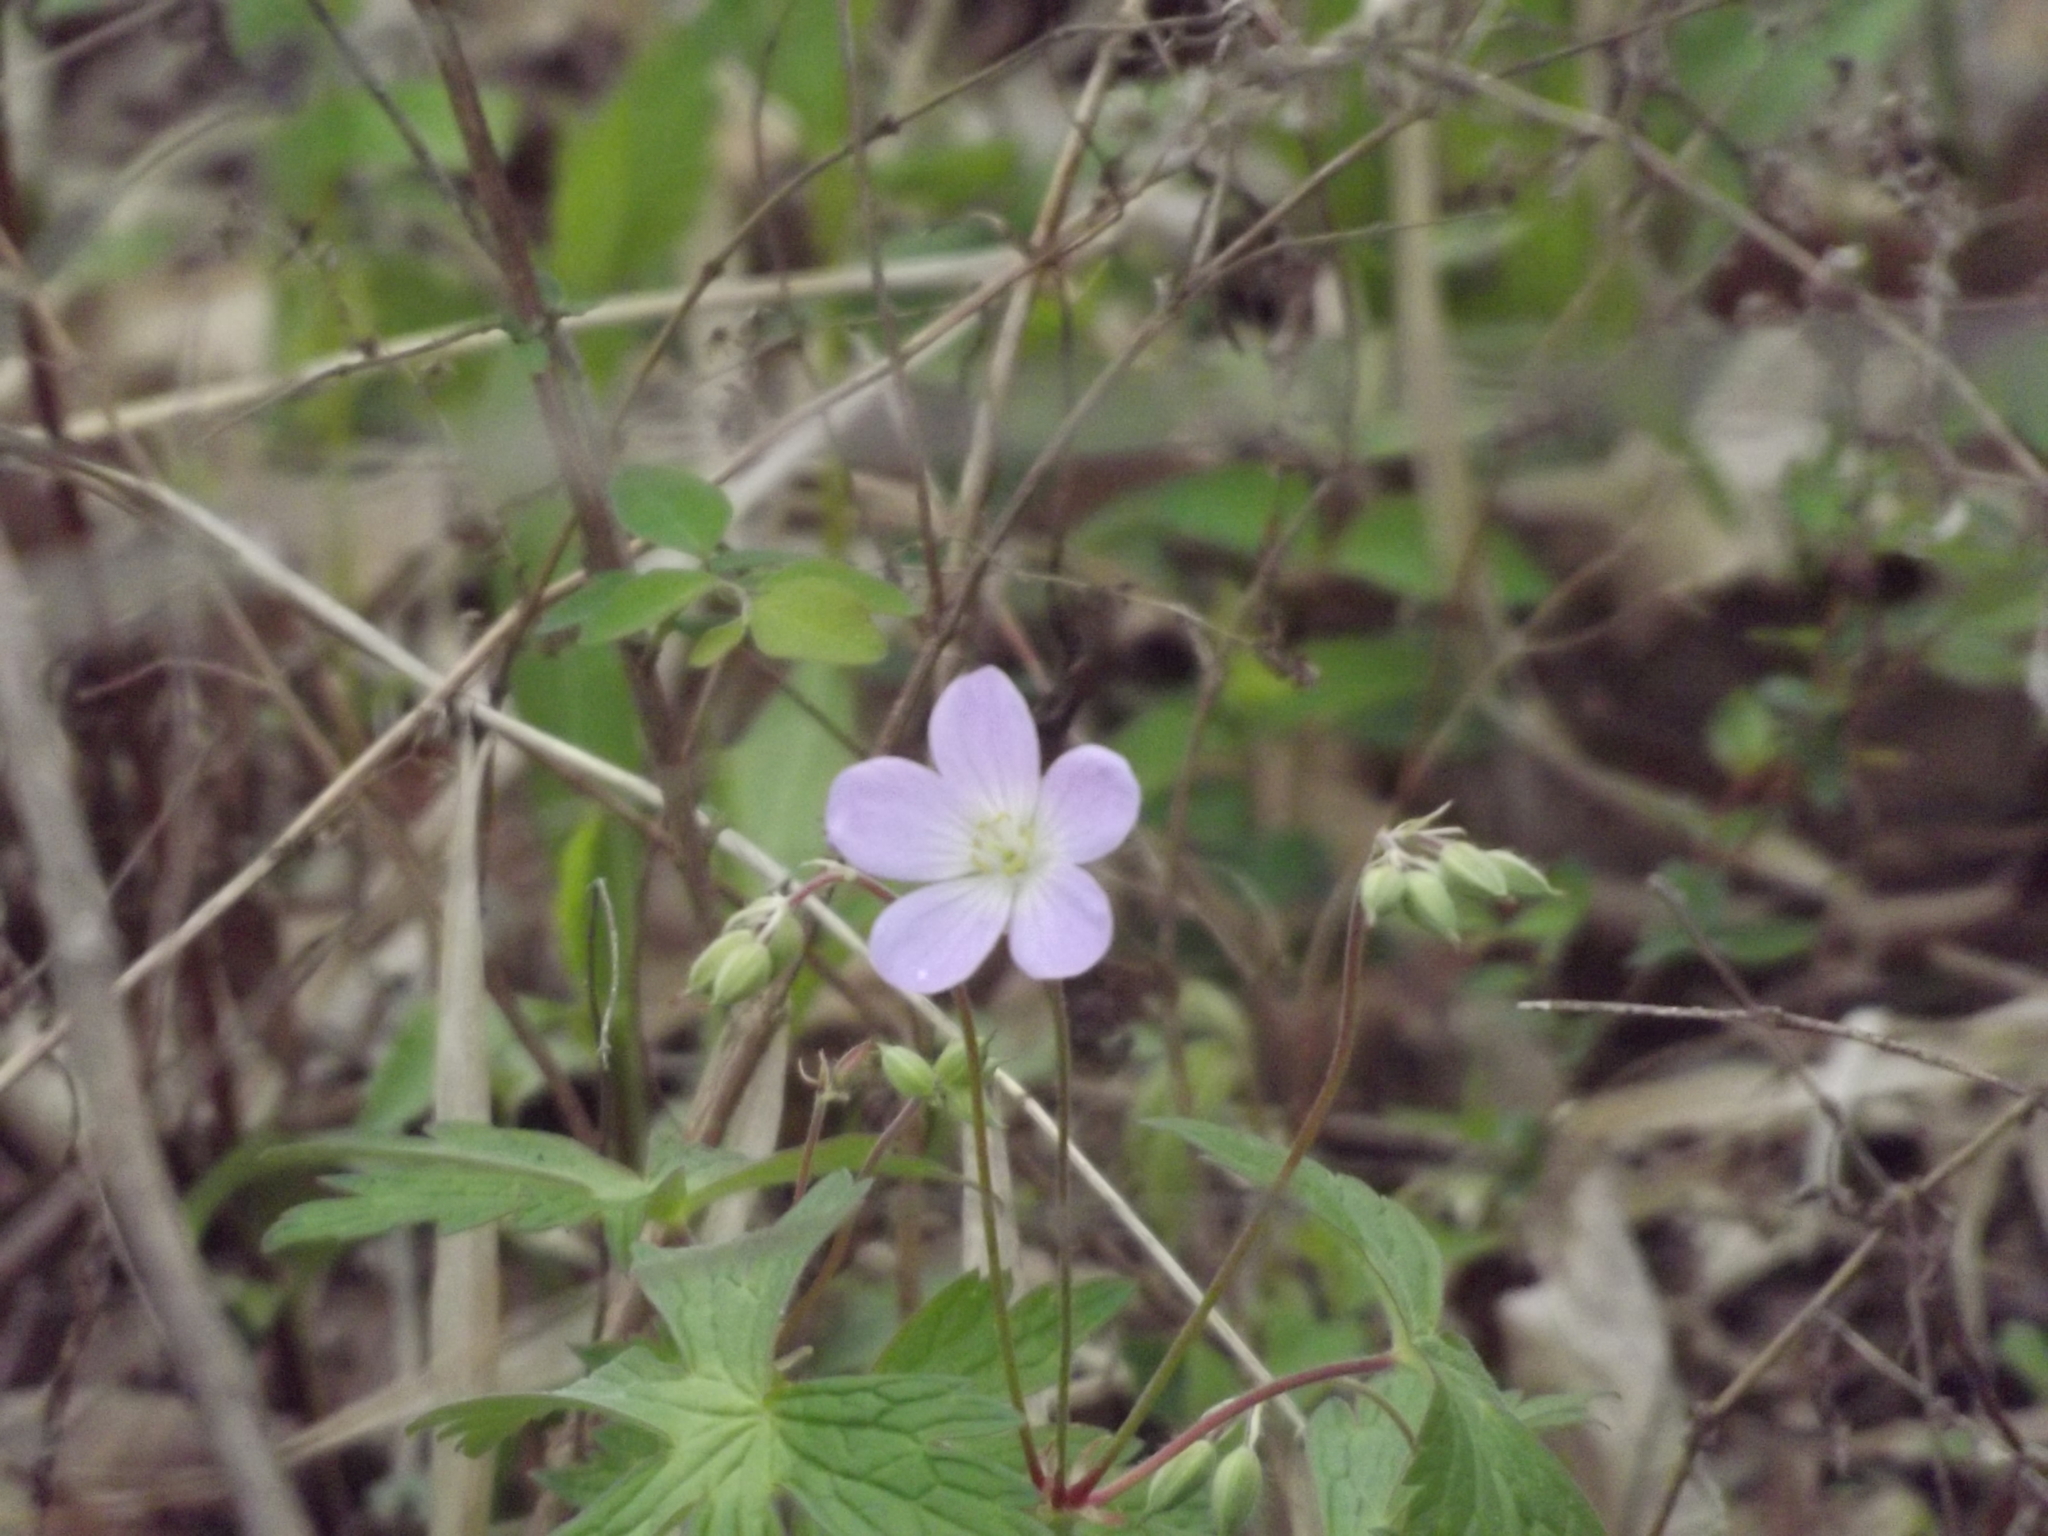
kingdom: Plantae
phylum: Tracheophyta
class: Magnoliopsida
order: Geraniales
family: Geraniaceae
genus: Geranium
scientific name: Geranium maculatum
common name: Spotted geranium
